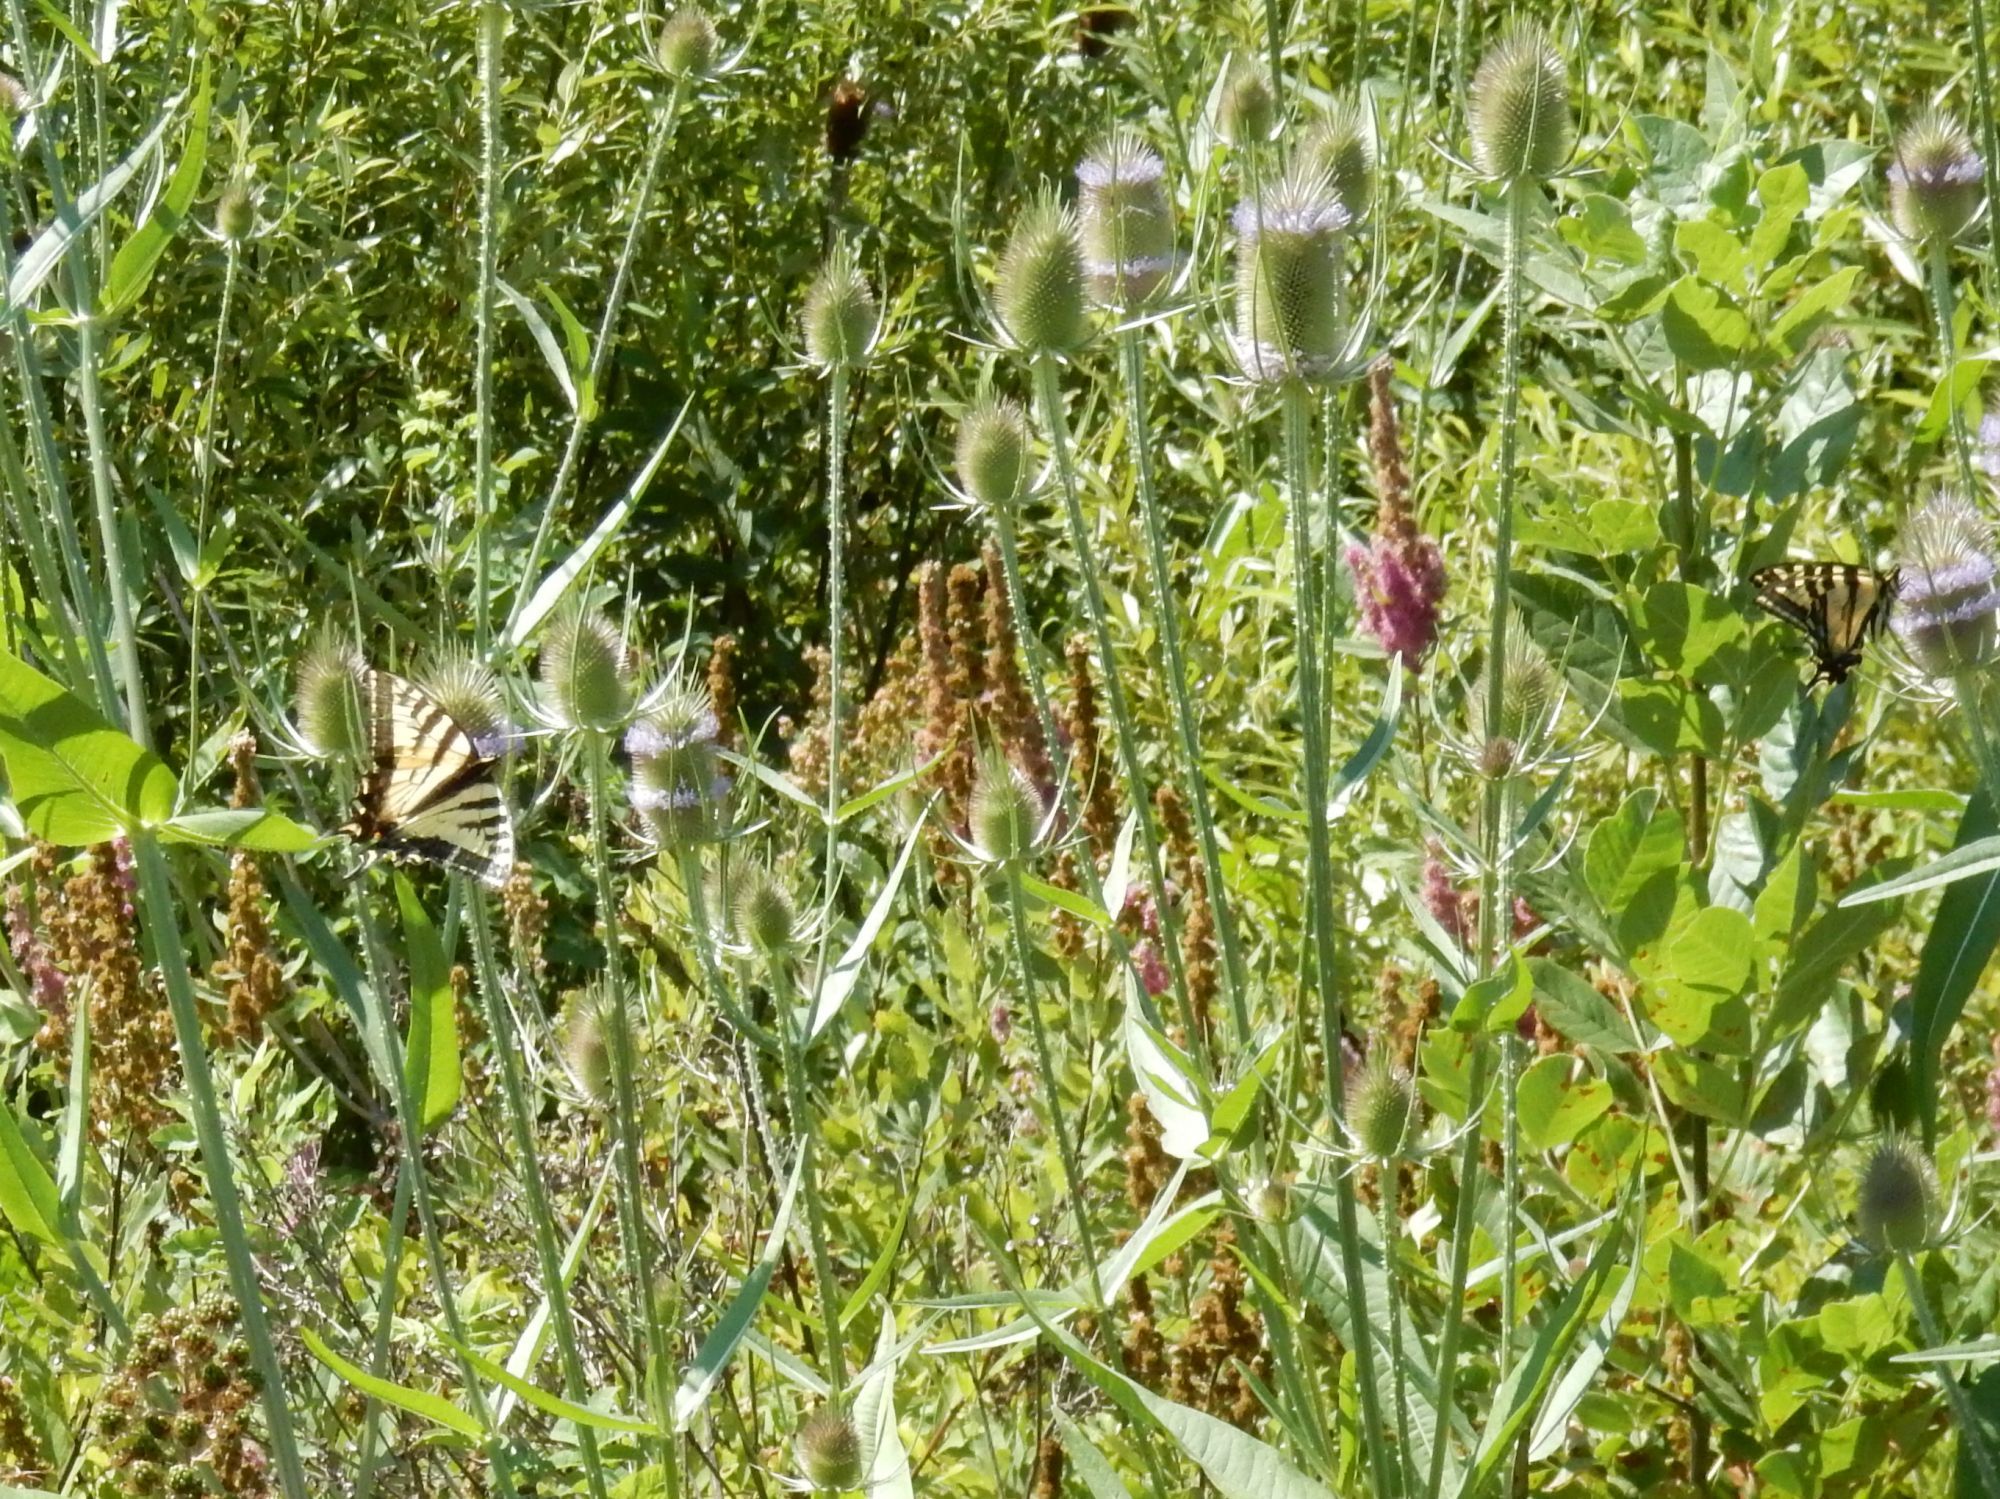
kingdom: Animalia
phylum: Arthropoda
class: Insecta
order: Lepidoptera
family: Papilionidae
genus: Papilio
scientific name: Papilio rutulus
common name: Western tiger swallowtail
